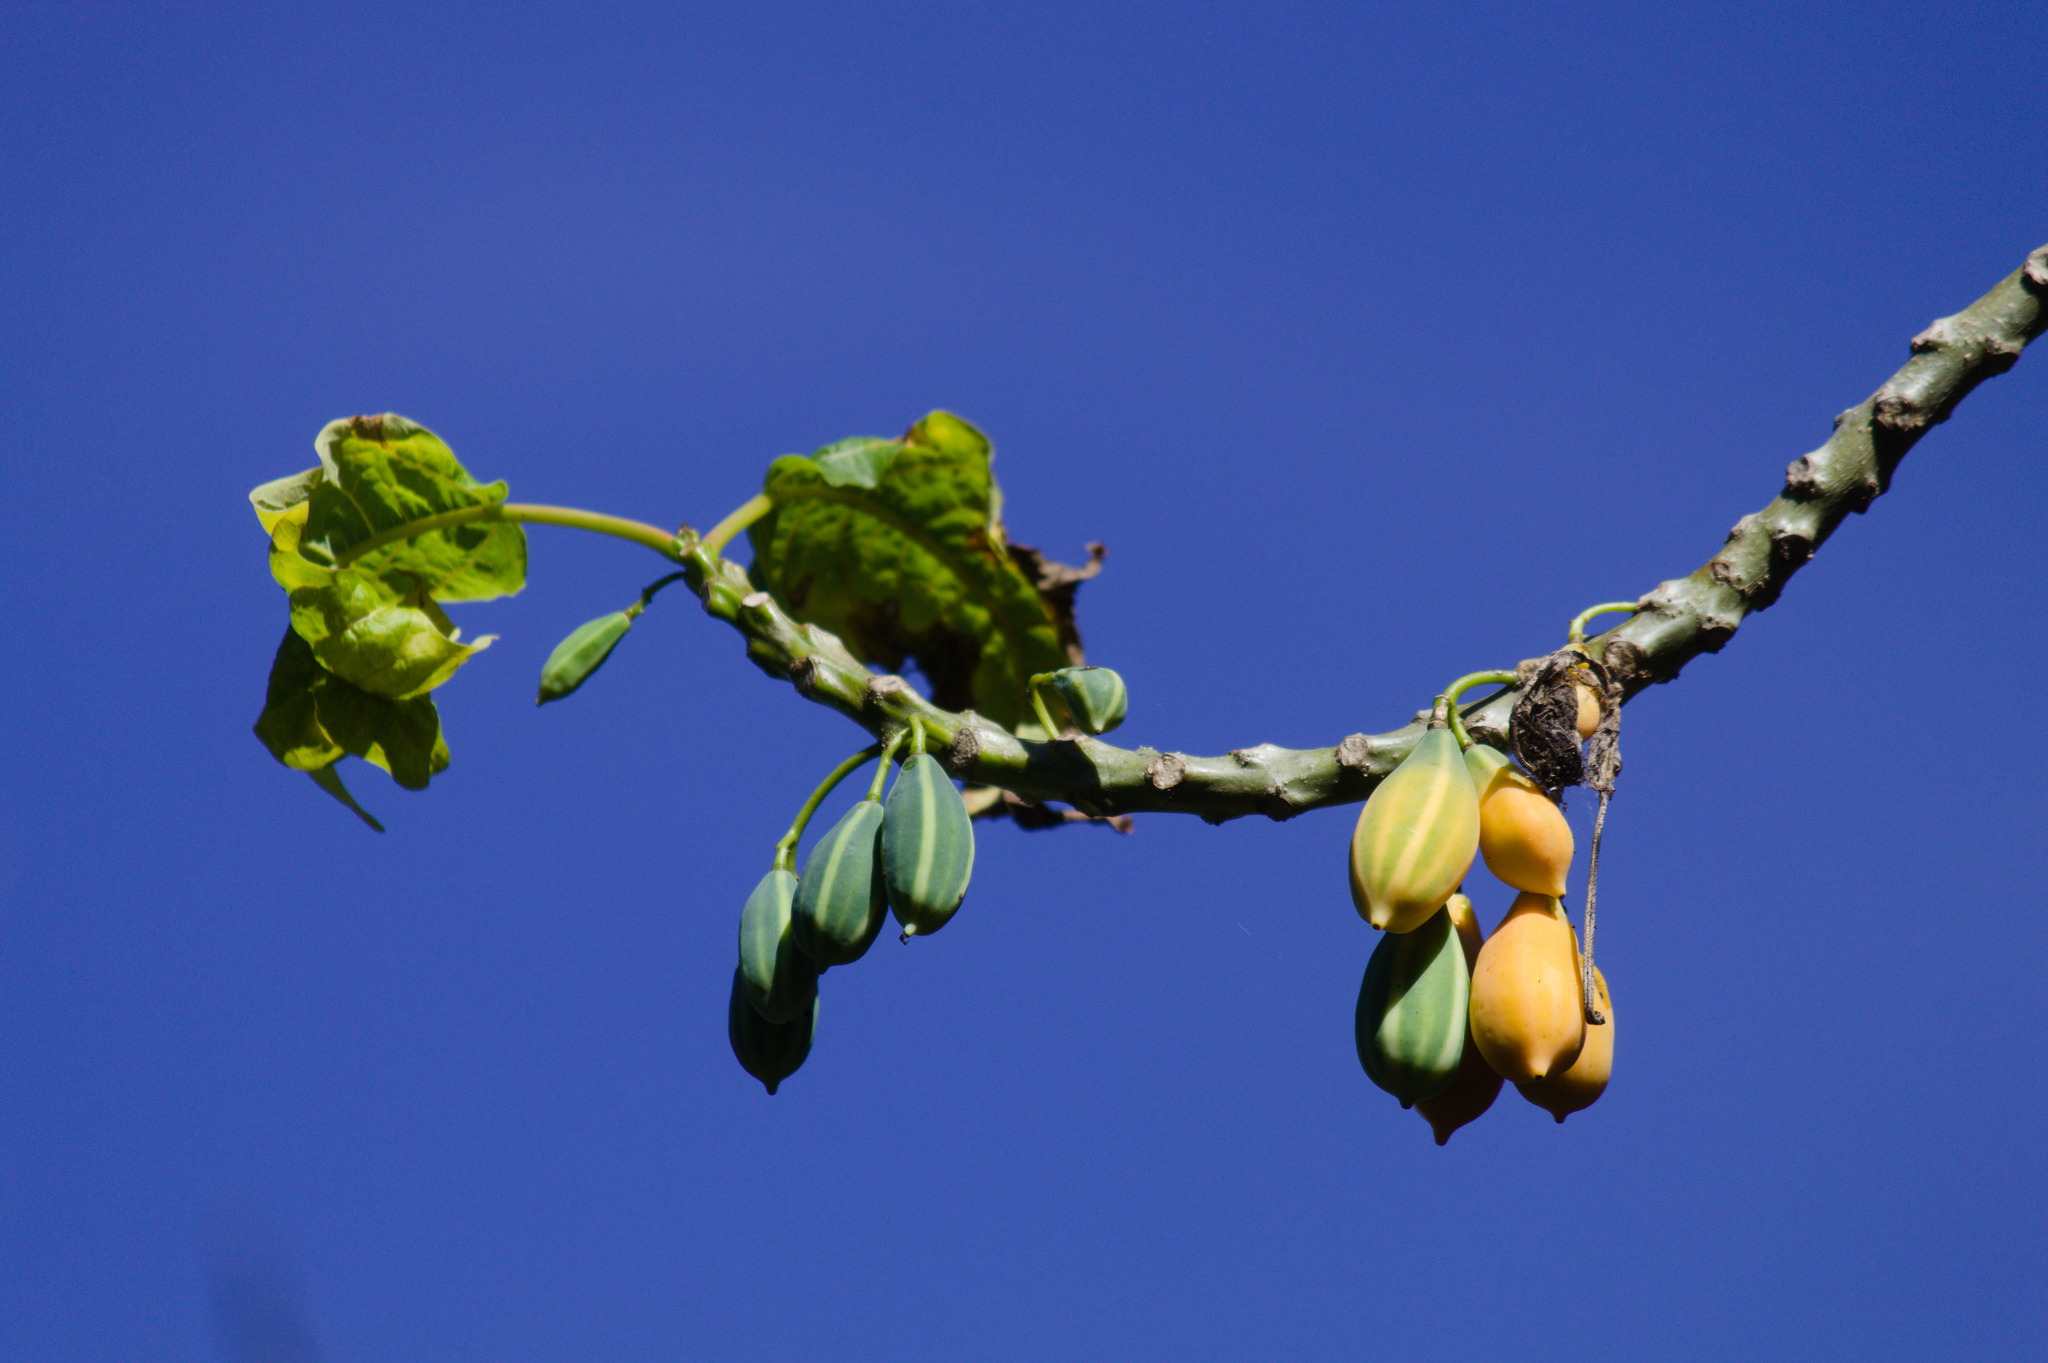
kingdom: Plantae
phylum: Tracheophyta
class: Magnoliopsida
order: Brassicales
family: Caricaceae
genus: Vasconcellea
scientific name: Vasconcellea quercifolia
